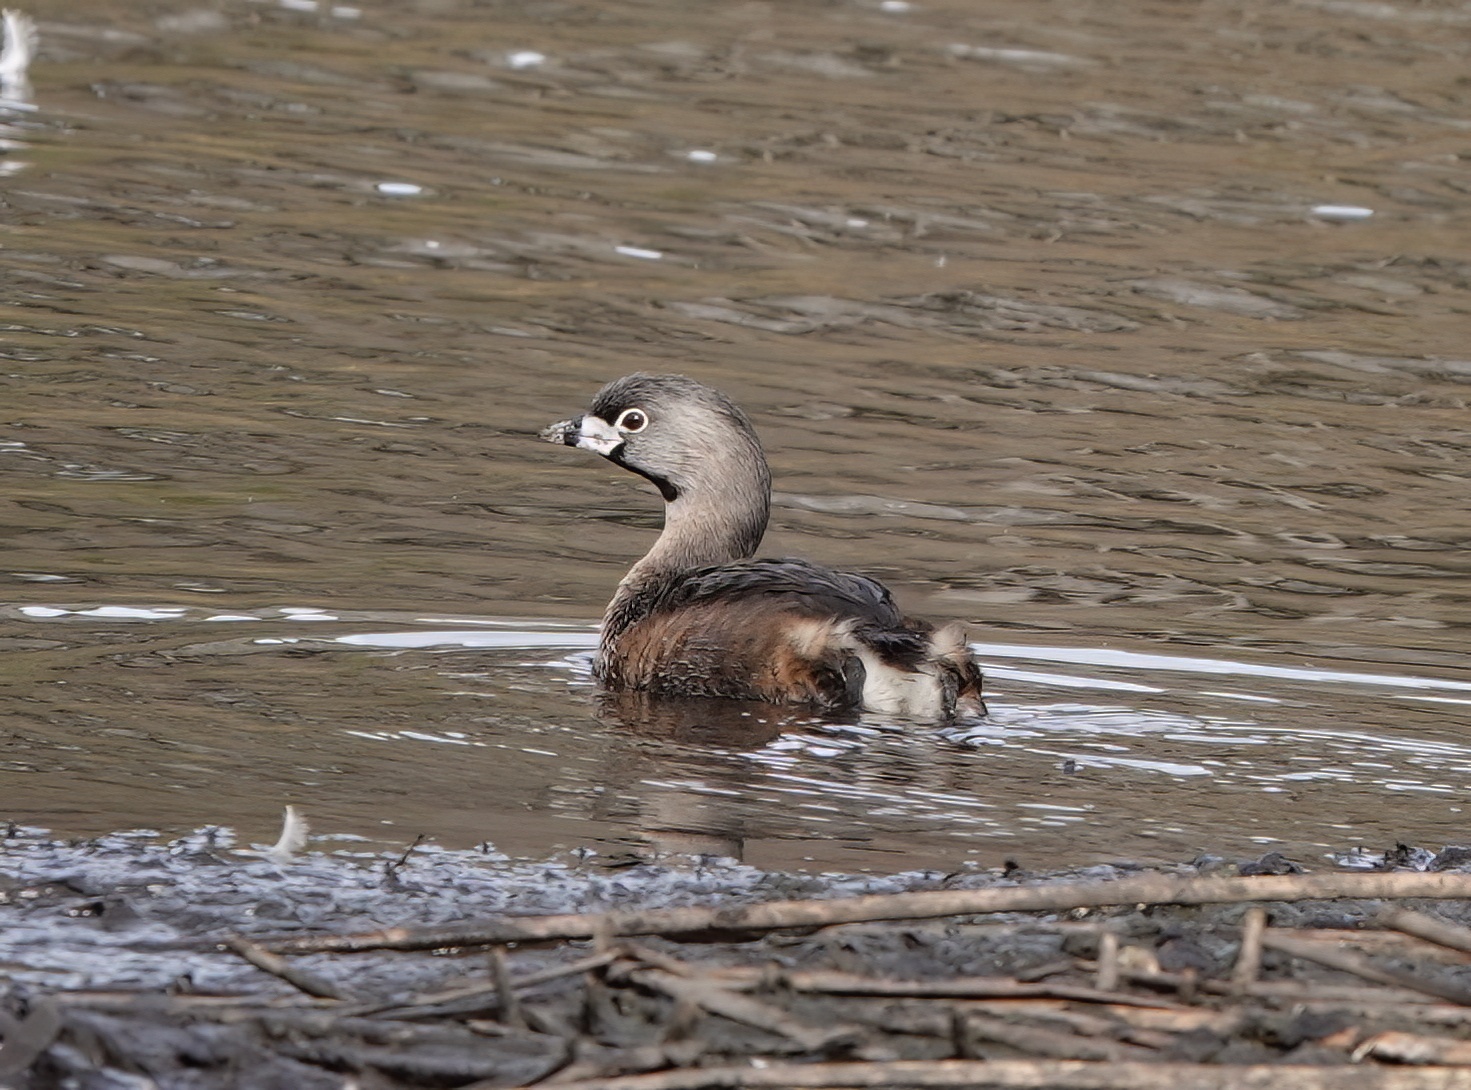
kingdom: Animalia
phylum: Chordata
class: Aves
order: Podicipediformes
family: Podicipedidae
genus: Podilymbus
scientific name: Podilymbus podiceps
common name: Pied-billed grebe
